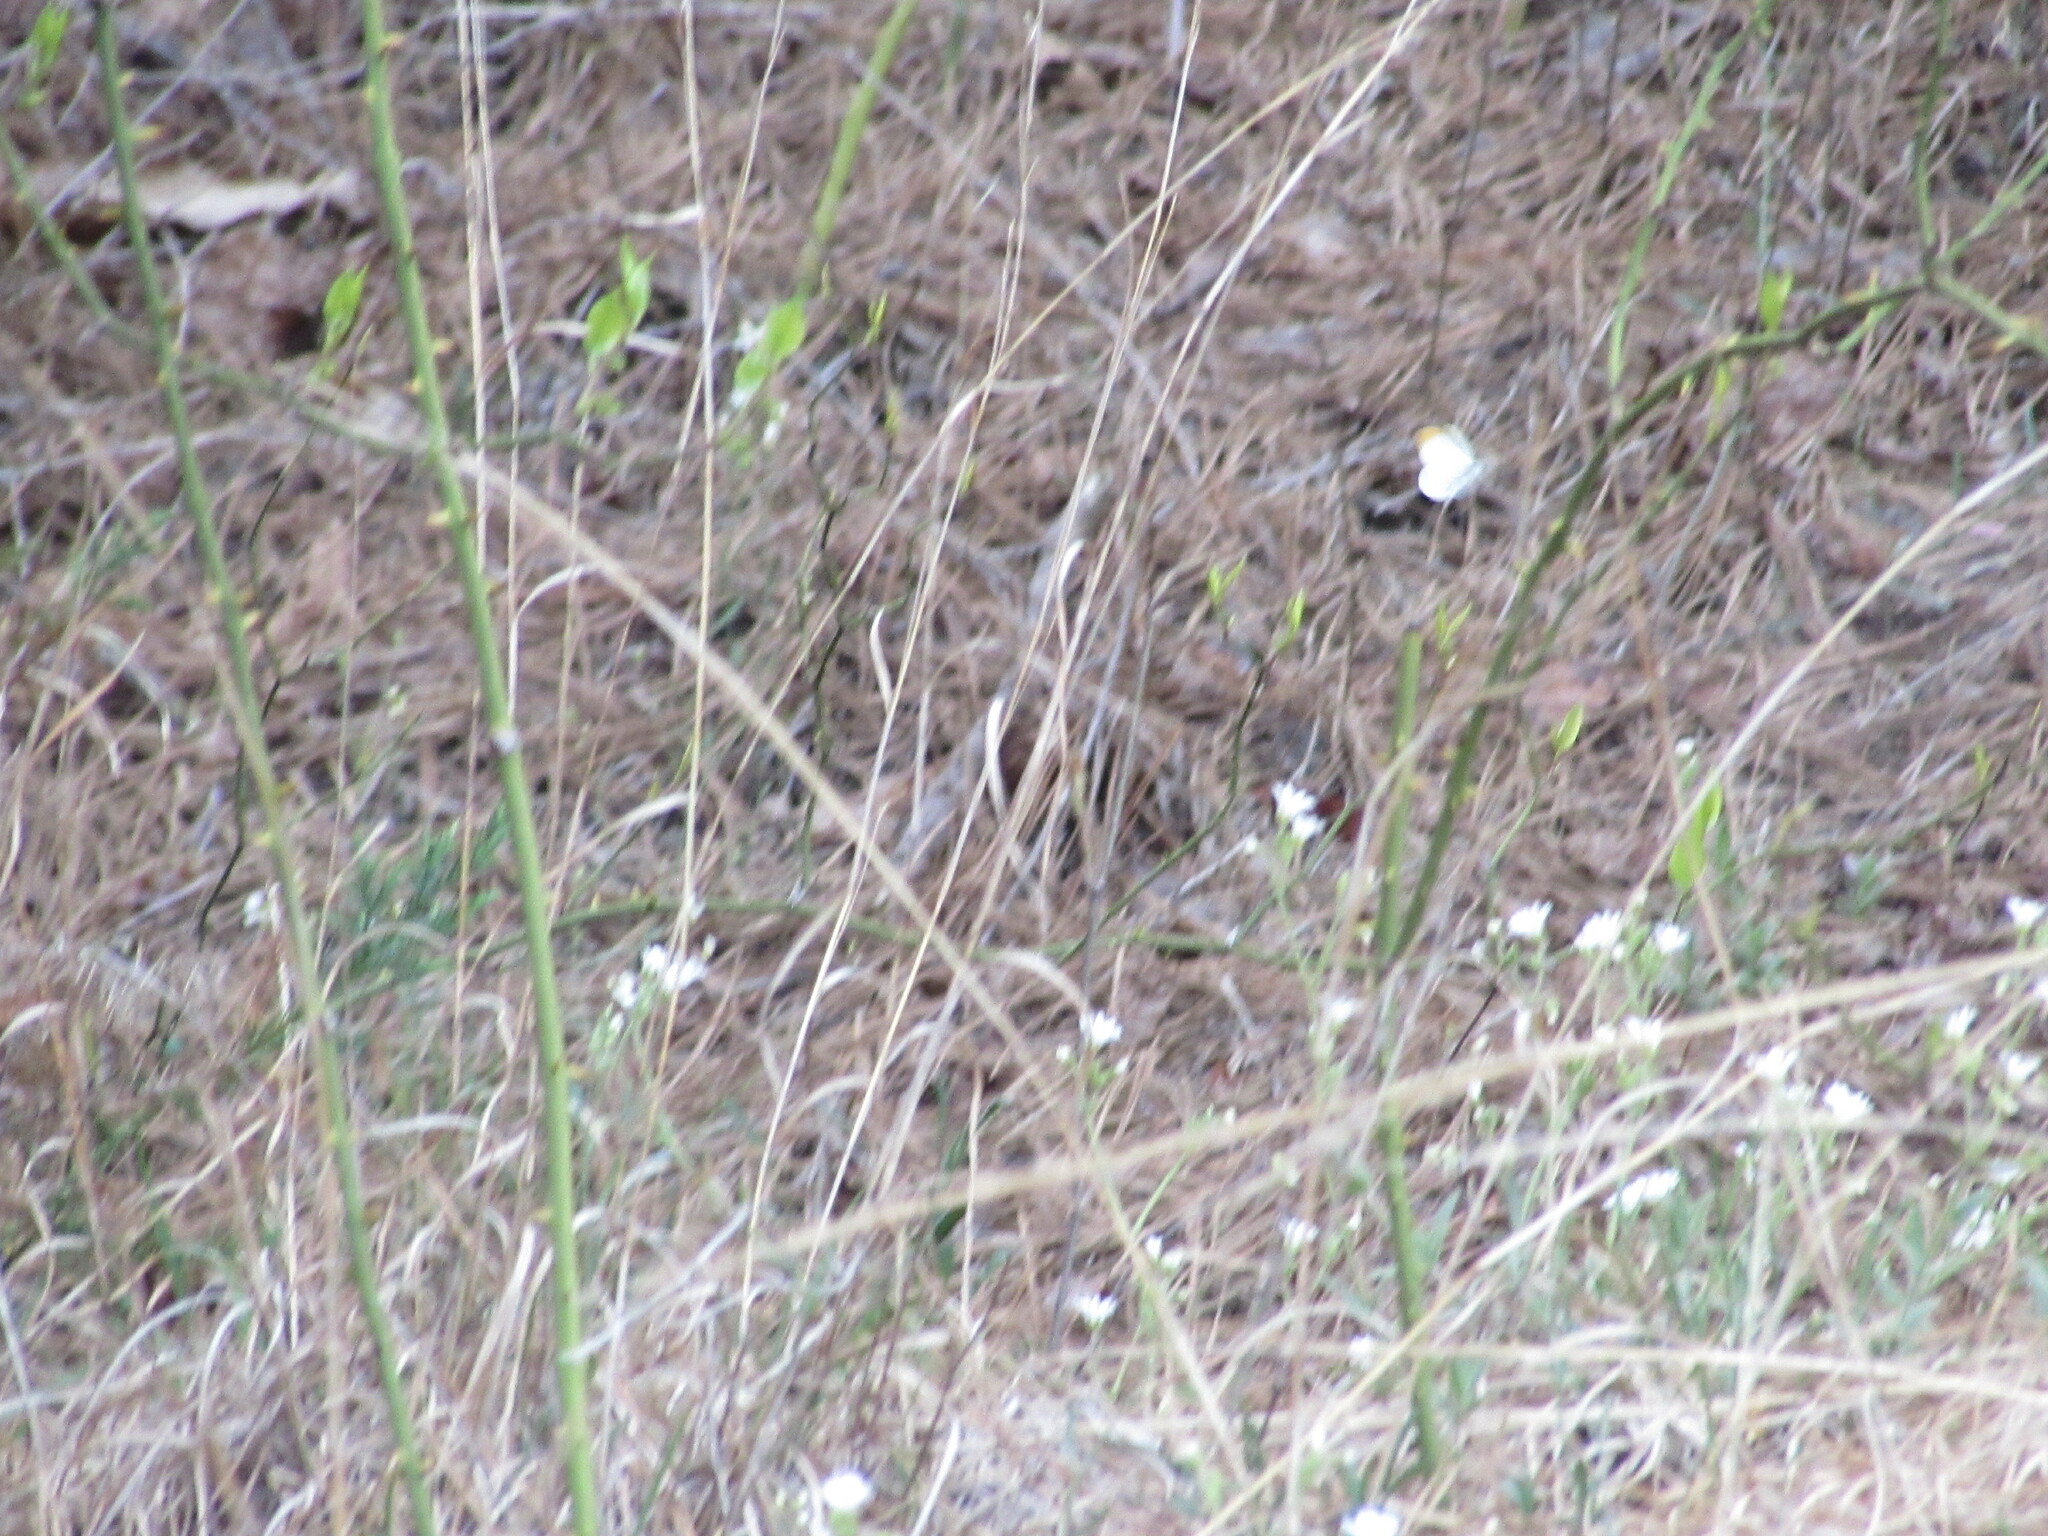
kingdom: Animalia
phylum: Arthropoda
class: Insecta
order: Lepidoptera
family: Pieridae
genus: Anthocharis
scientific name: Anthocharis midea
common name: Falcate orangetip
